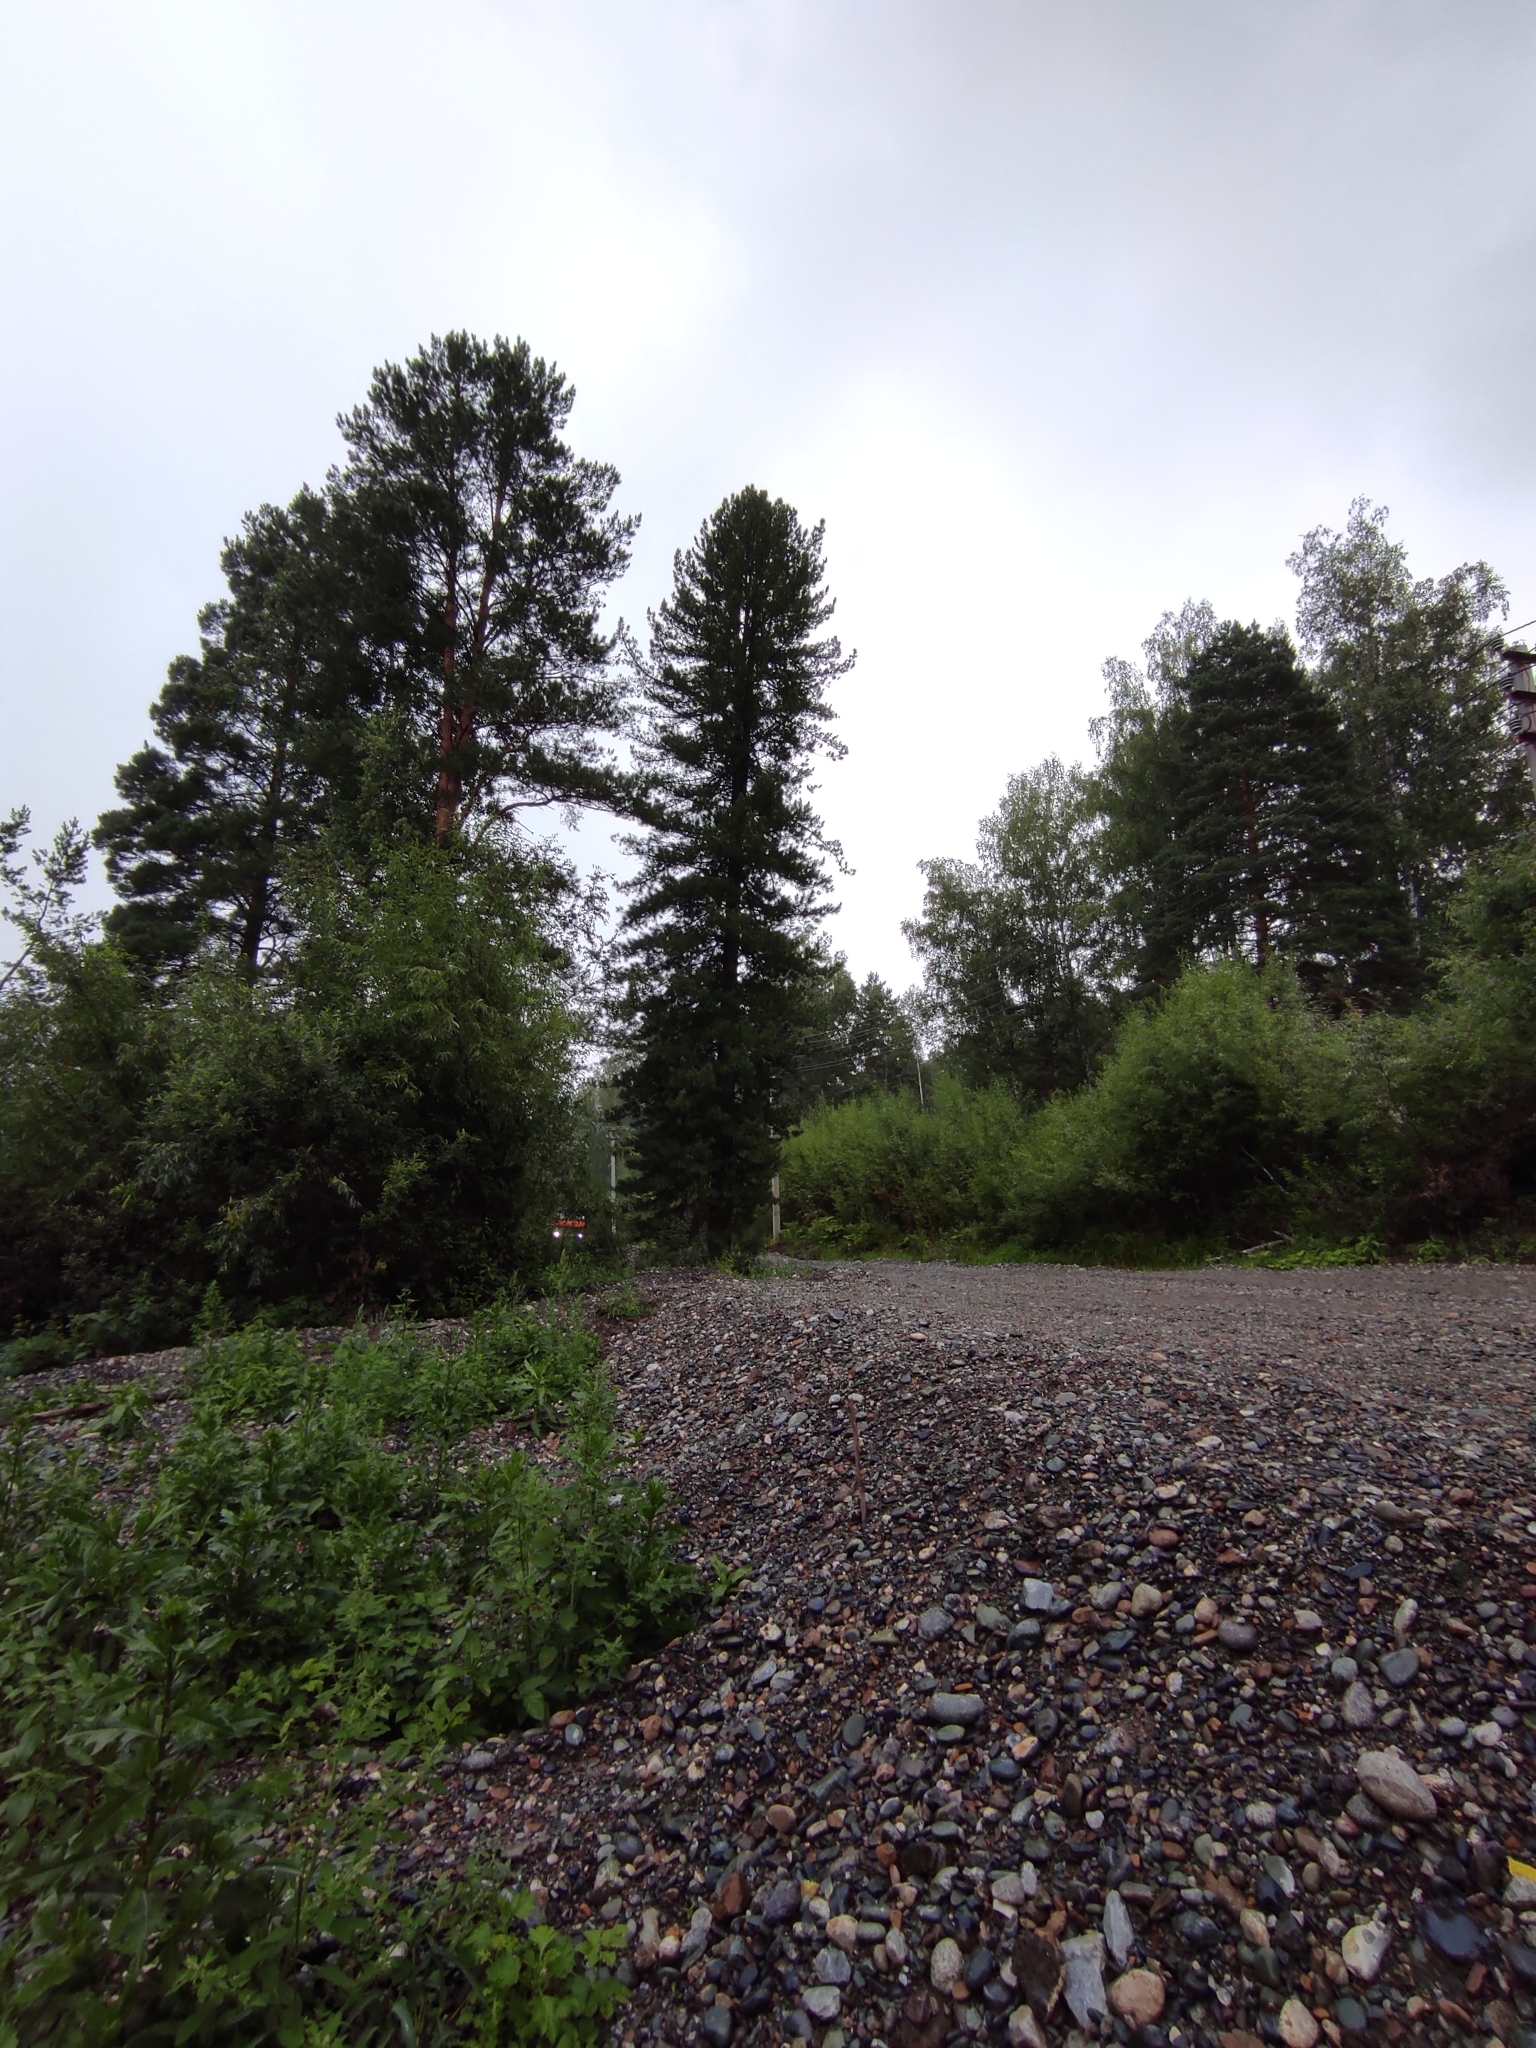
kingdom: Plantae
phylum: Tracheophyta
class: Pinopsida
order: Pinales
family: Pinaceae
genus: Pinus
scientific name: Pinus sibirica
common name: Siberian pine
